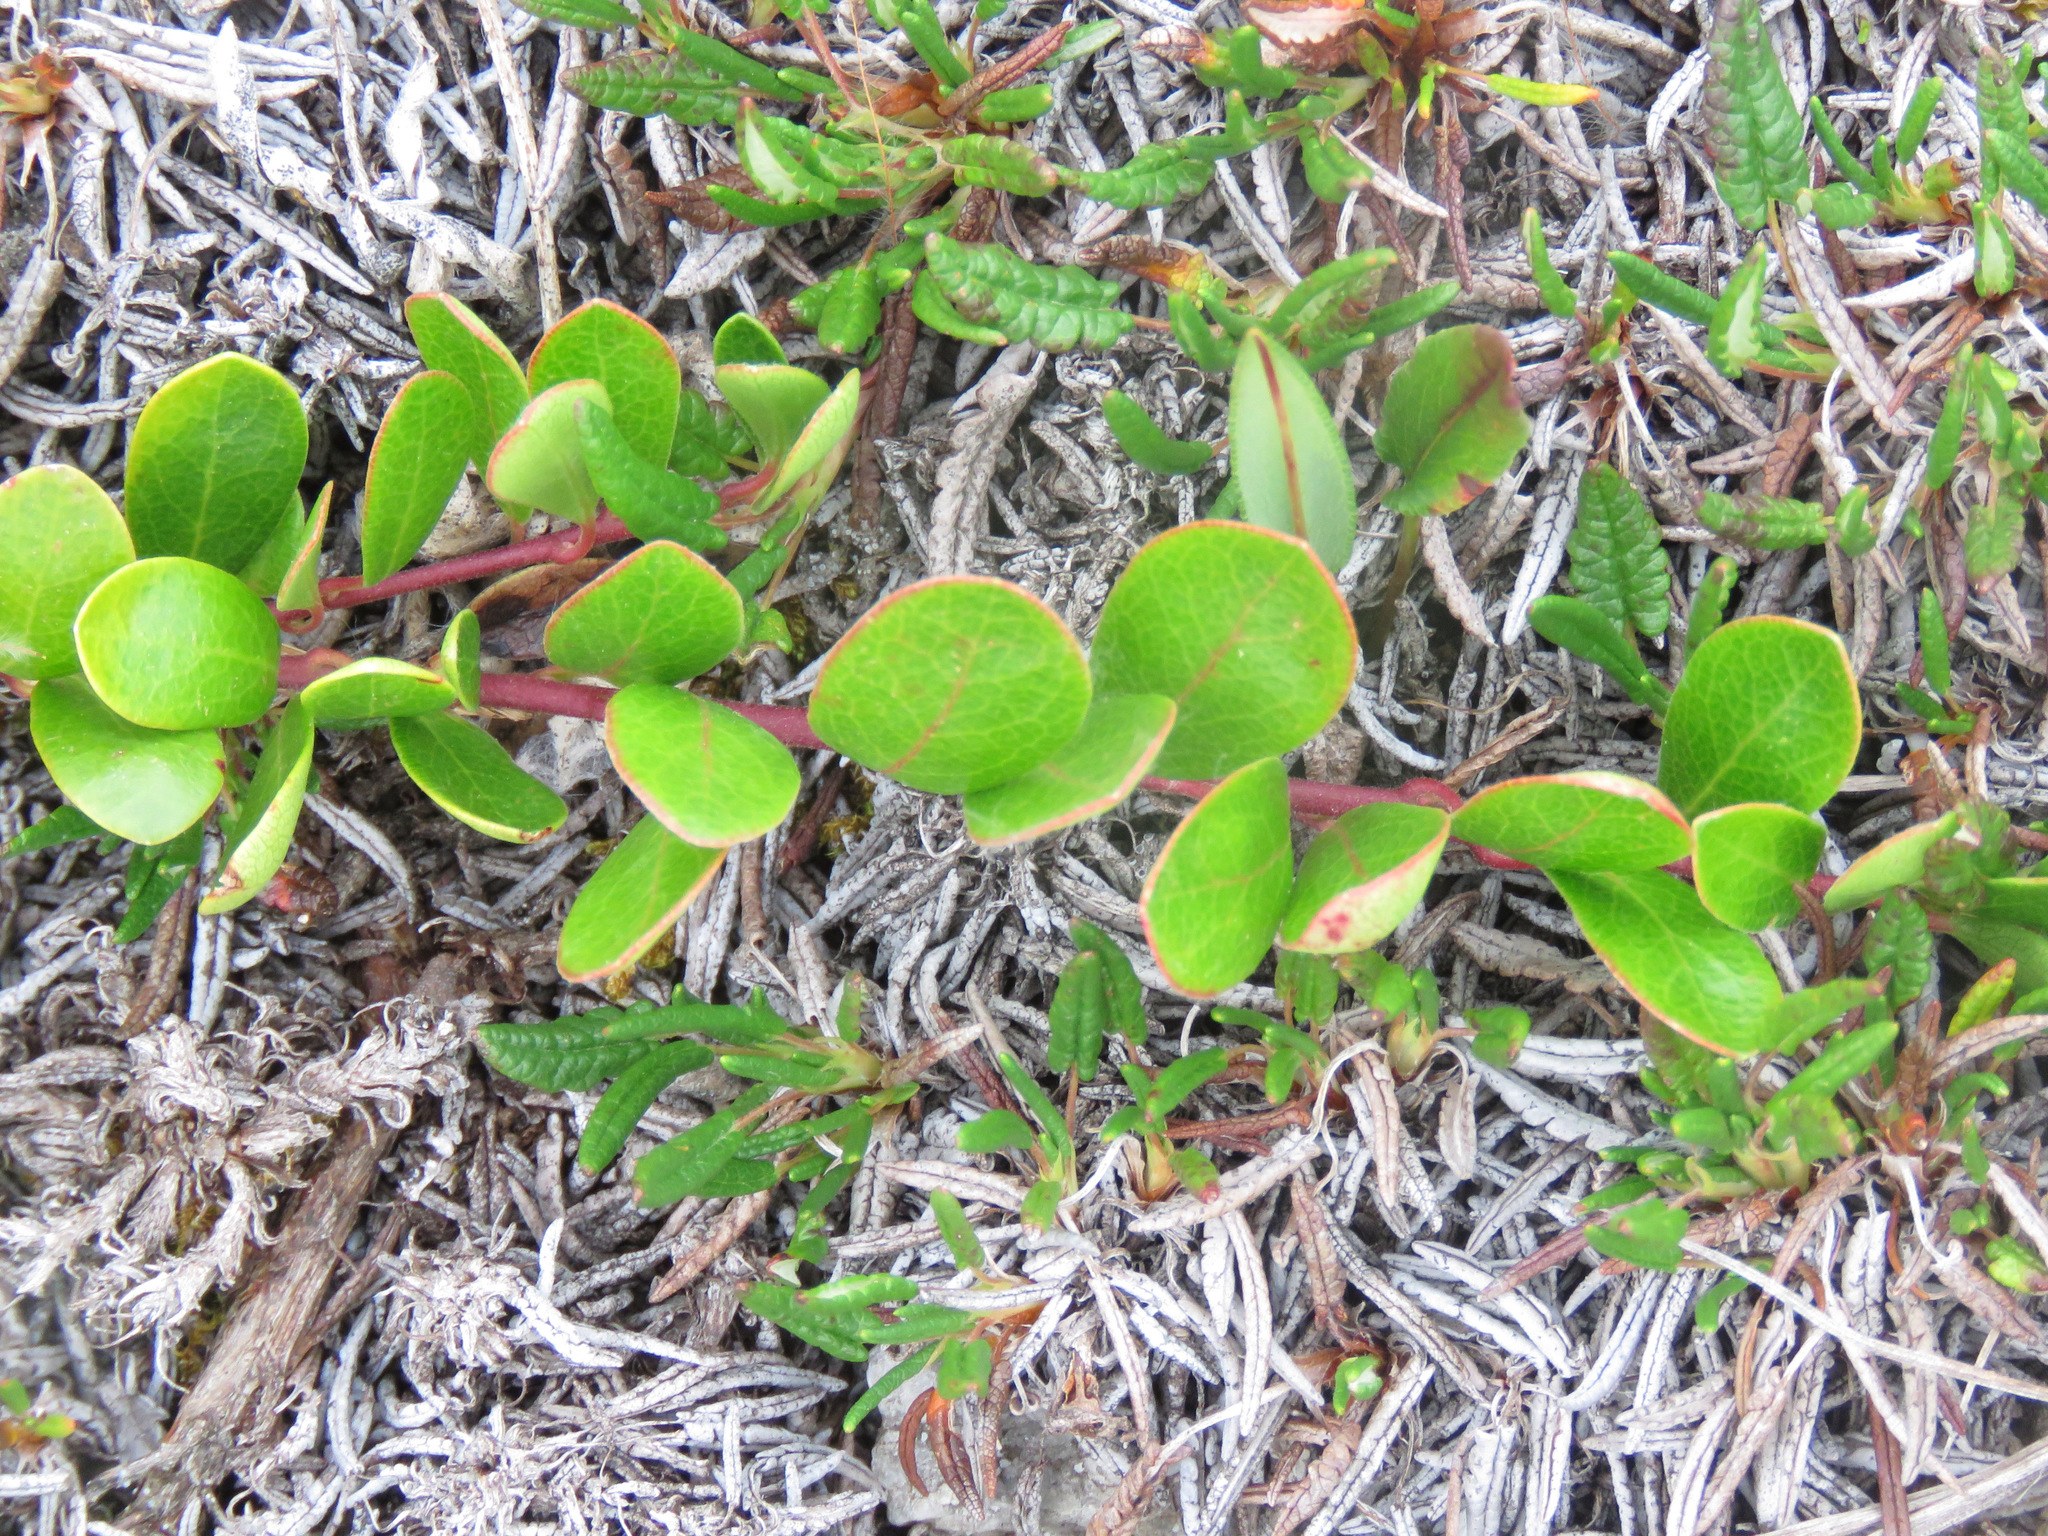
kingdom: Plantae
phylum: Tracheophyta
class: Magnoliopsida
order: Ericales
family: Ericaceae
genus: Arctostaphylos
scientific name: Arctostaphylos uva-ursi
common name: Bearberry
